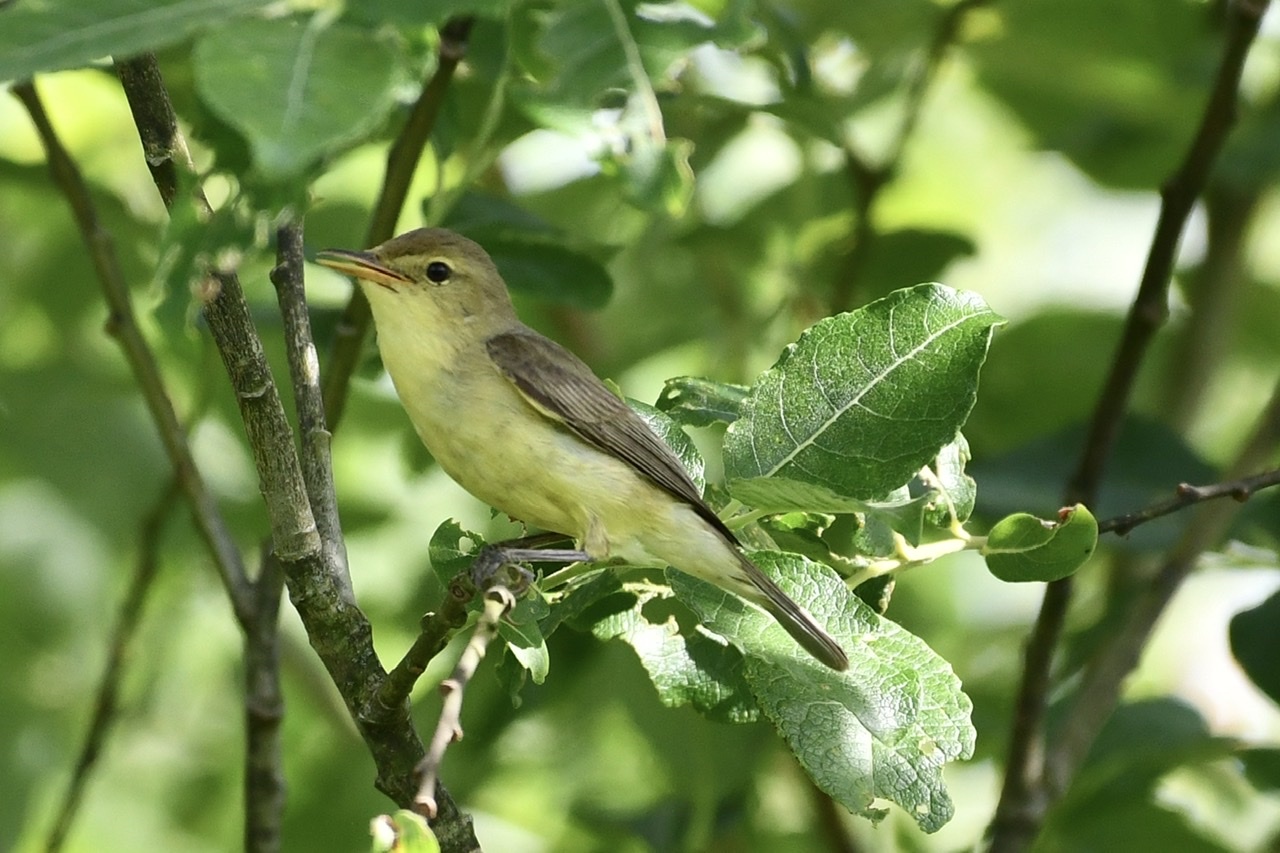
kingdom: Animalia
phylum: Chordata
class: Aves
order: Passeriformes
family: Acrocephalidae
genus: Hippolais
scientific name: Hippolais icterina
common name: Icterine warbler
